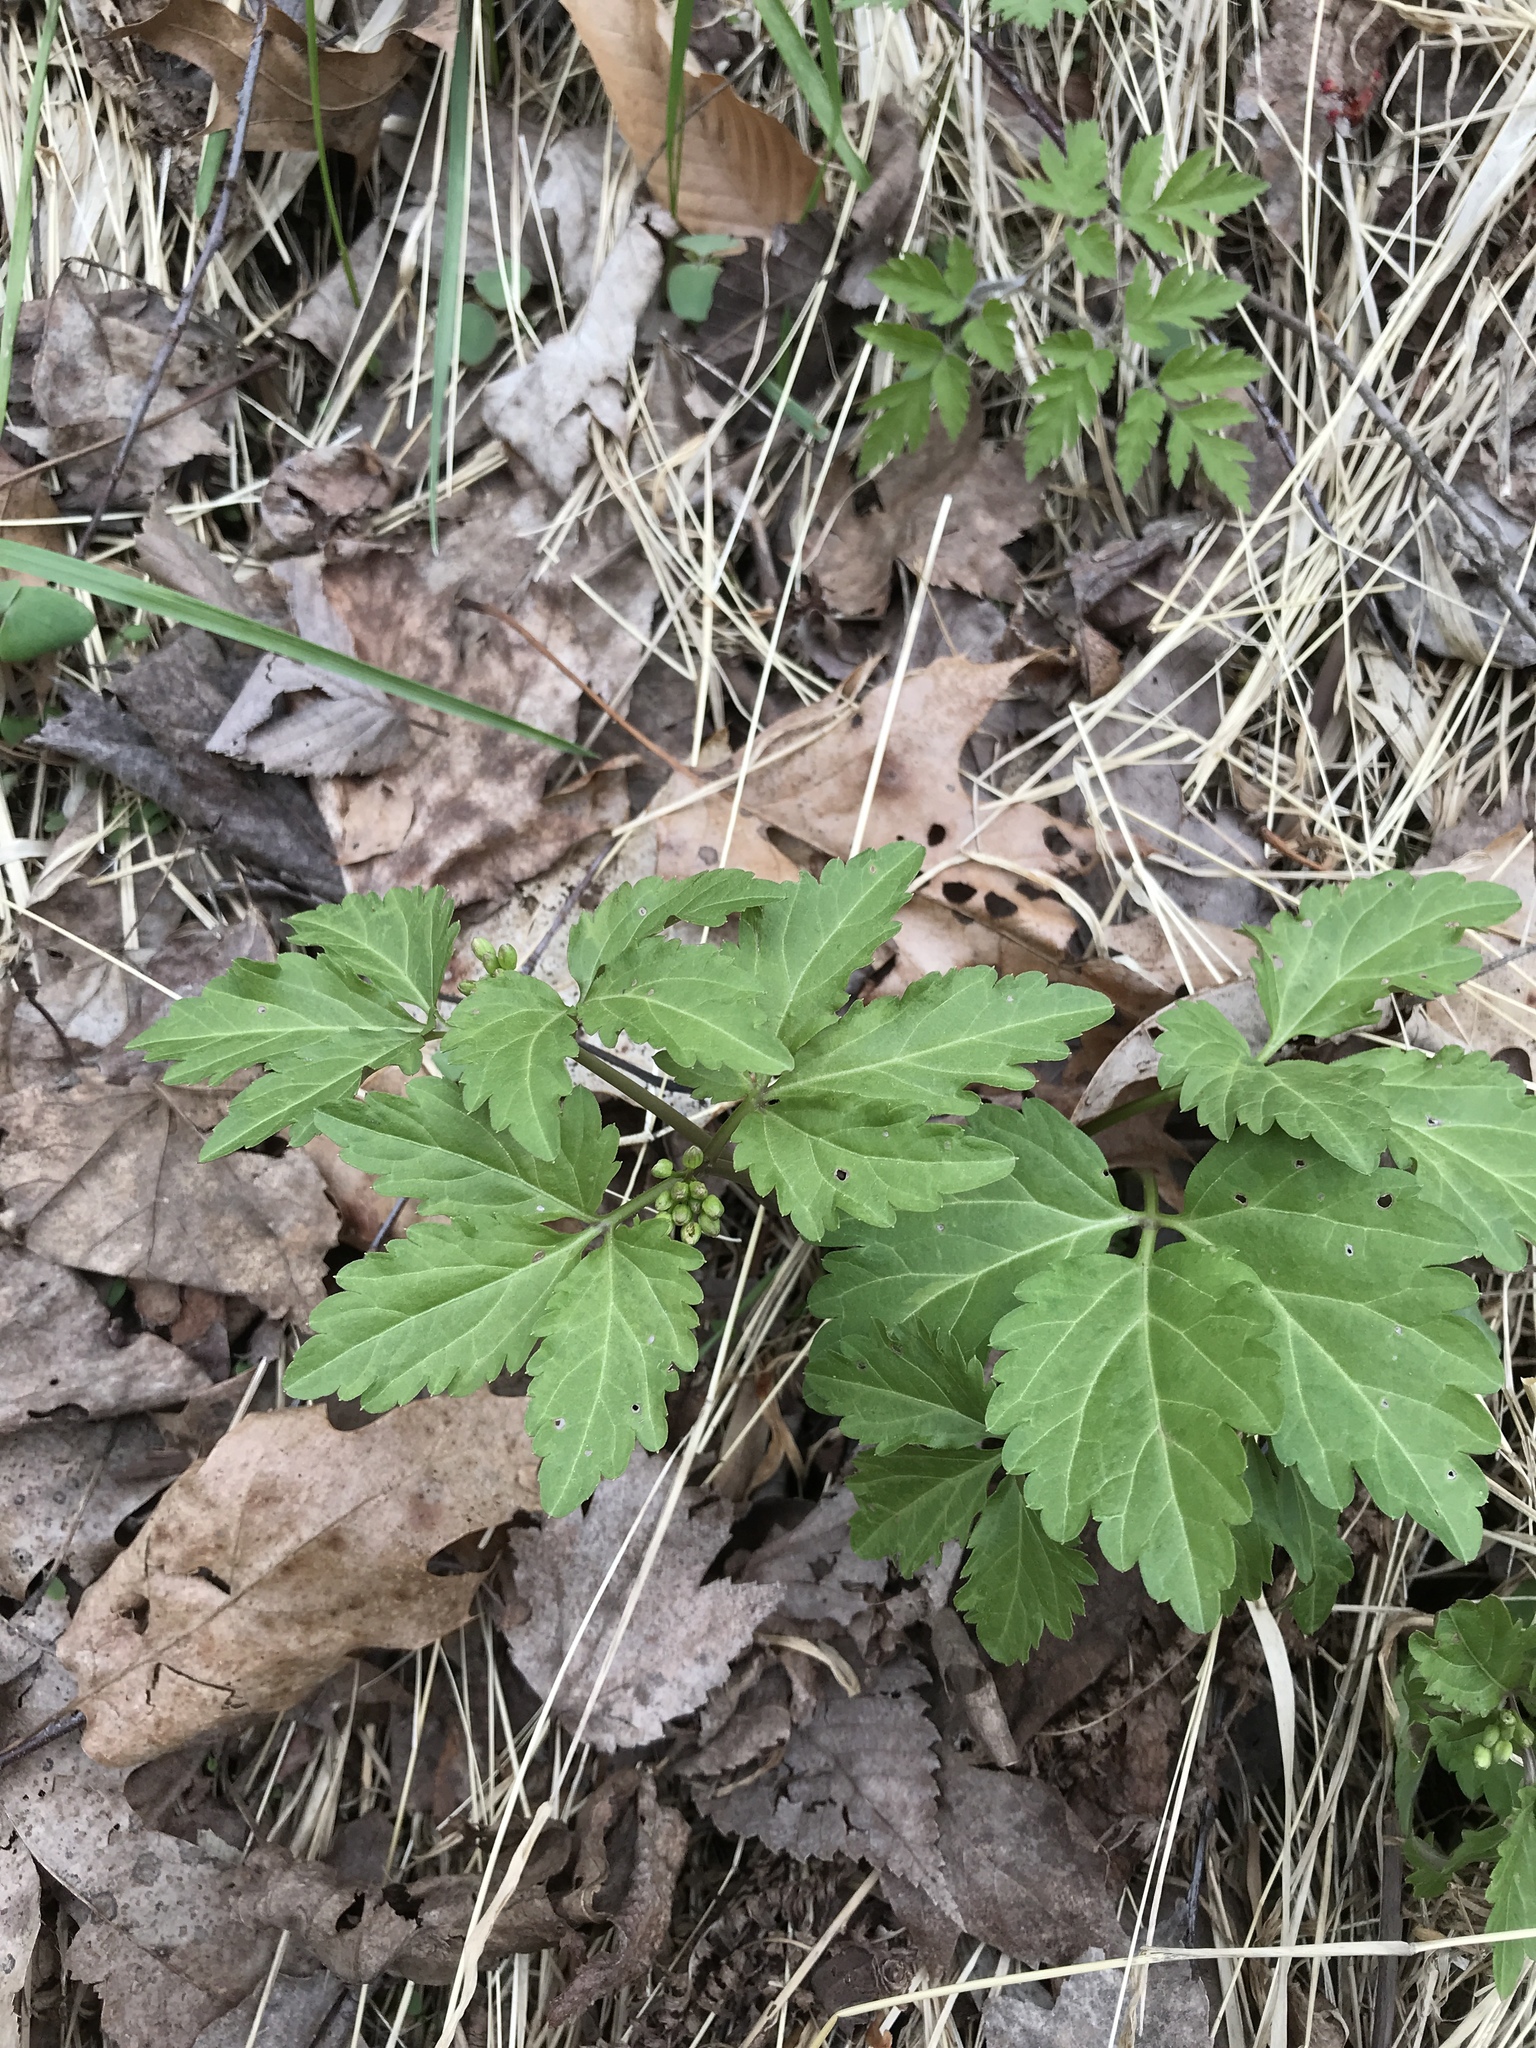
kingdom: Plantae
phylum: Tracheophyta
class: Magnoliopsida
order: Brassicales
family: Brassicaceae
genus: Cardamine
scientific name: Cardamine diphylla
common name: Broad-leaved toothwort
